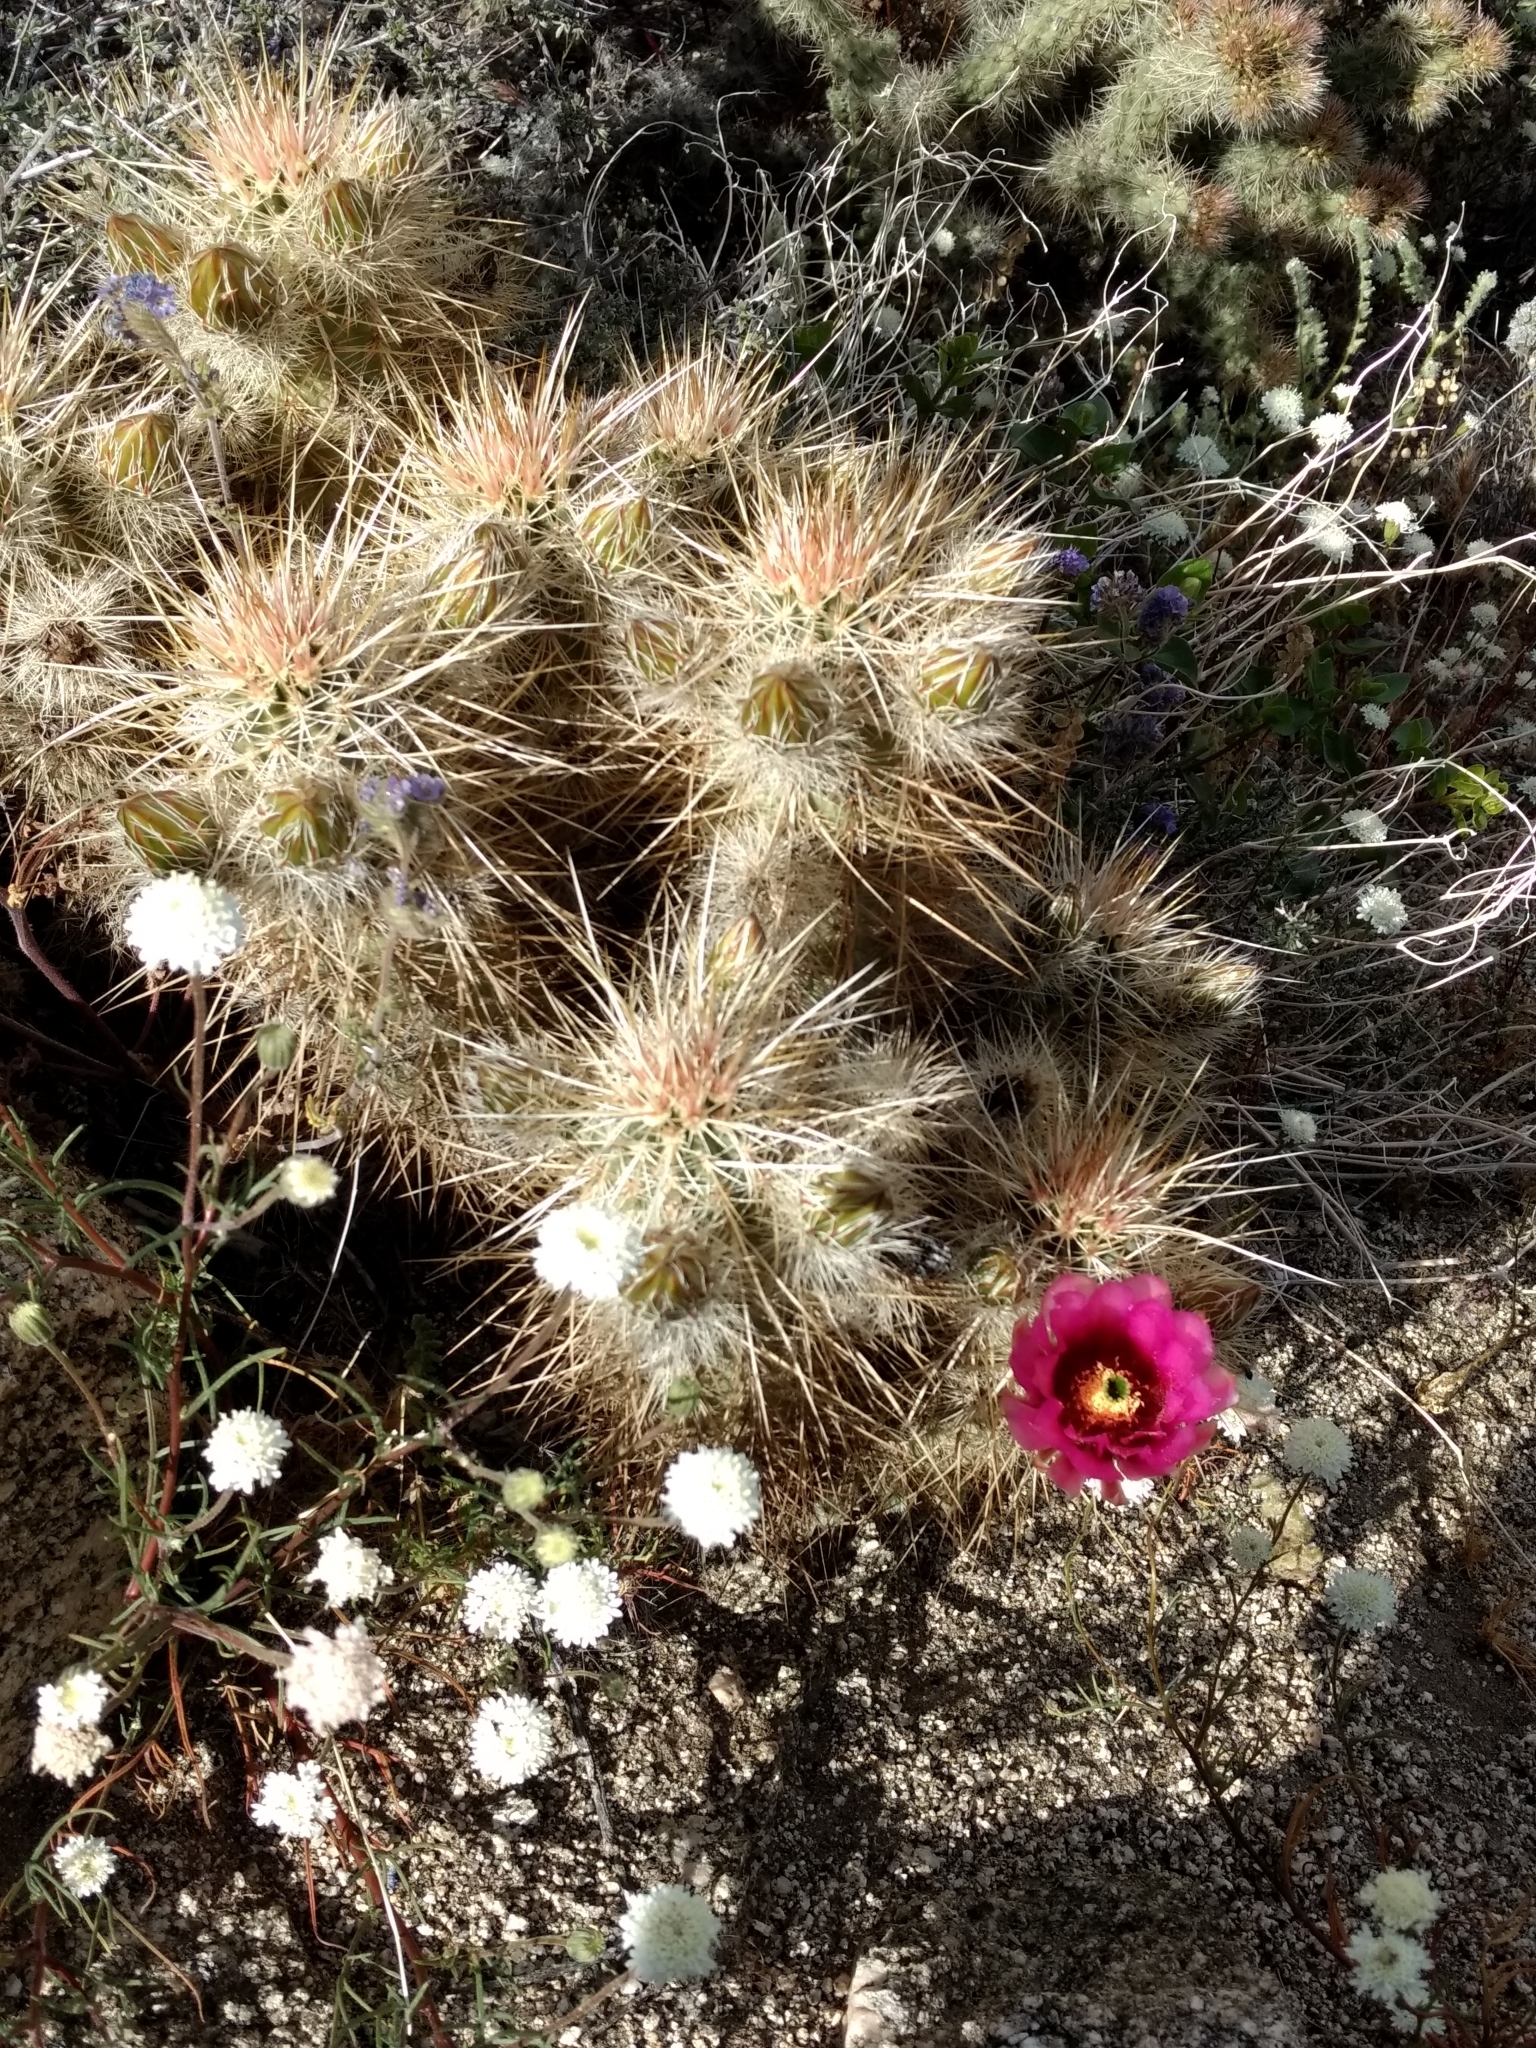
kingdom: Plantae
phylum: Tracheophyta
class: Magnoliopsida
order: Caryophyllales
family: Cactaceae
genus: Echinocereus
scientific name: Echinocereus engelmannii
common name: Engelmann's hedgehog cactus
